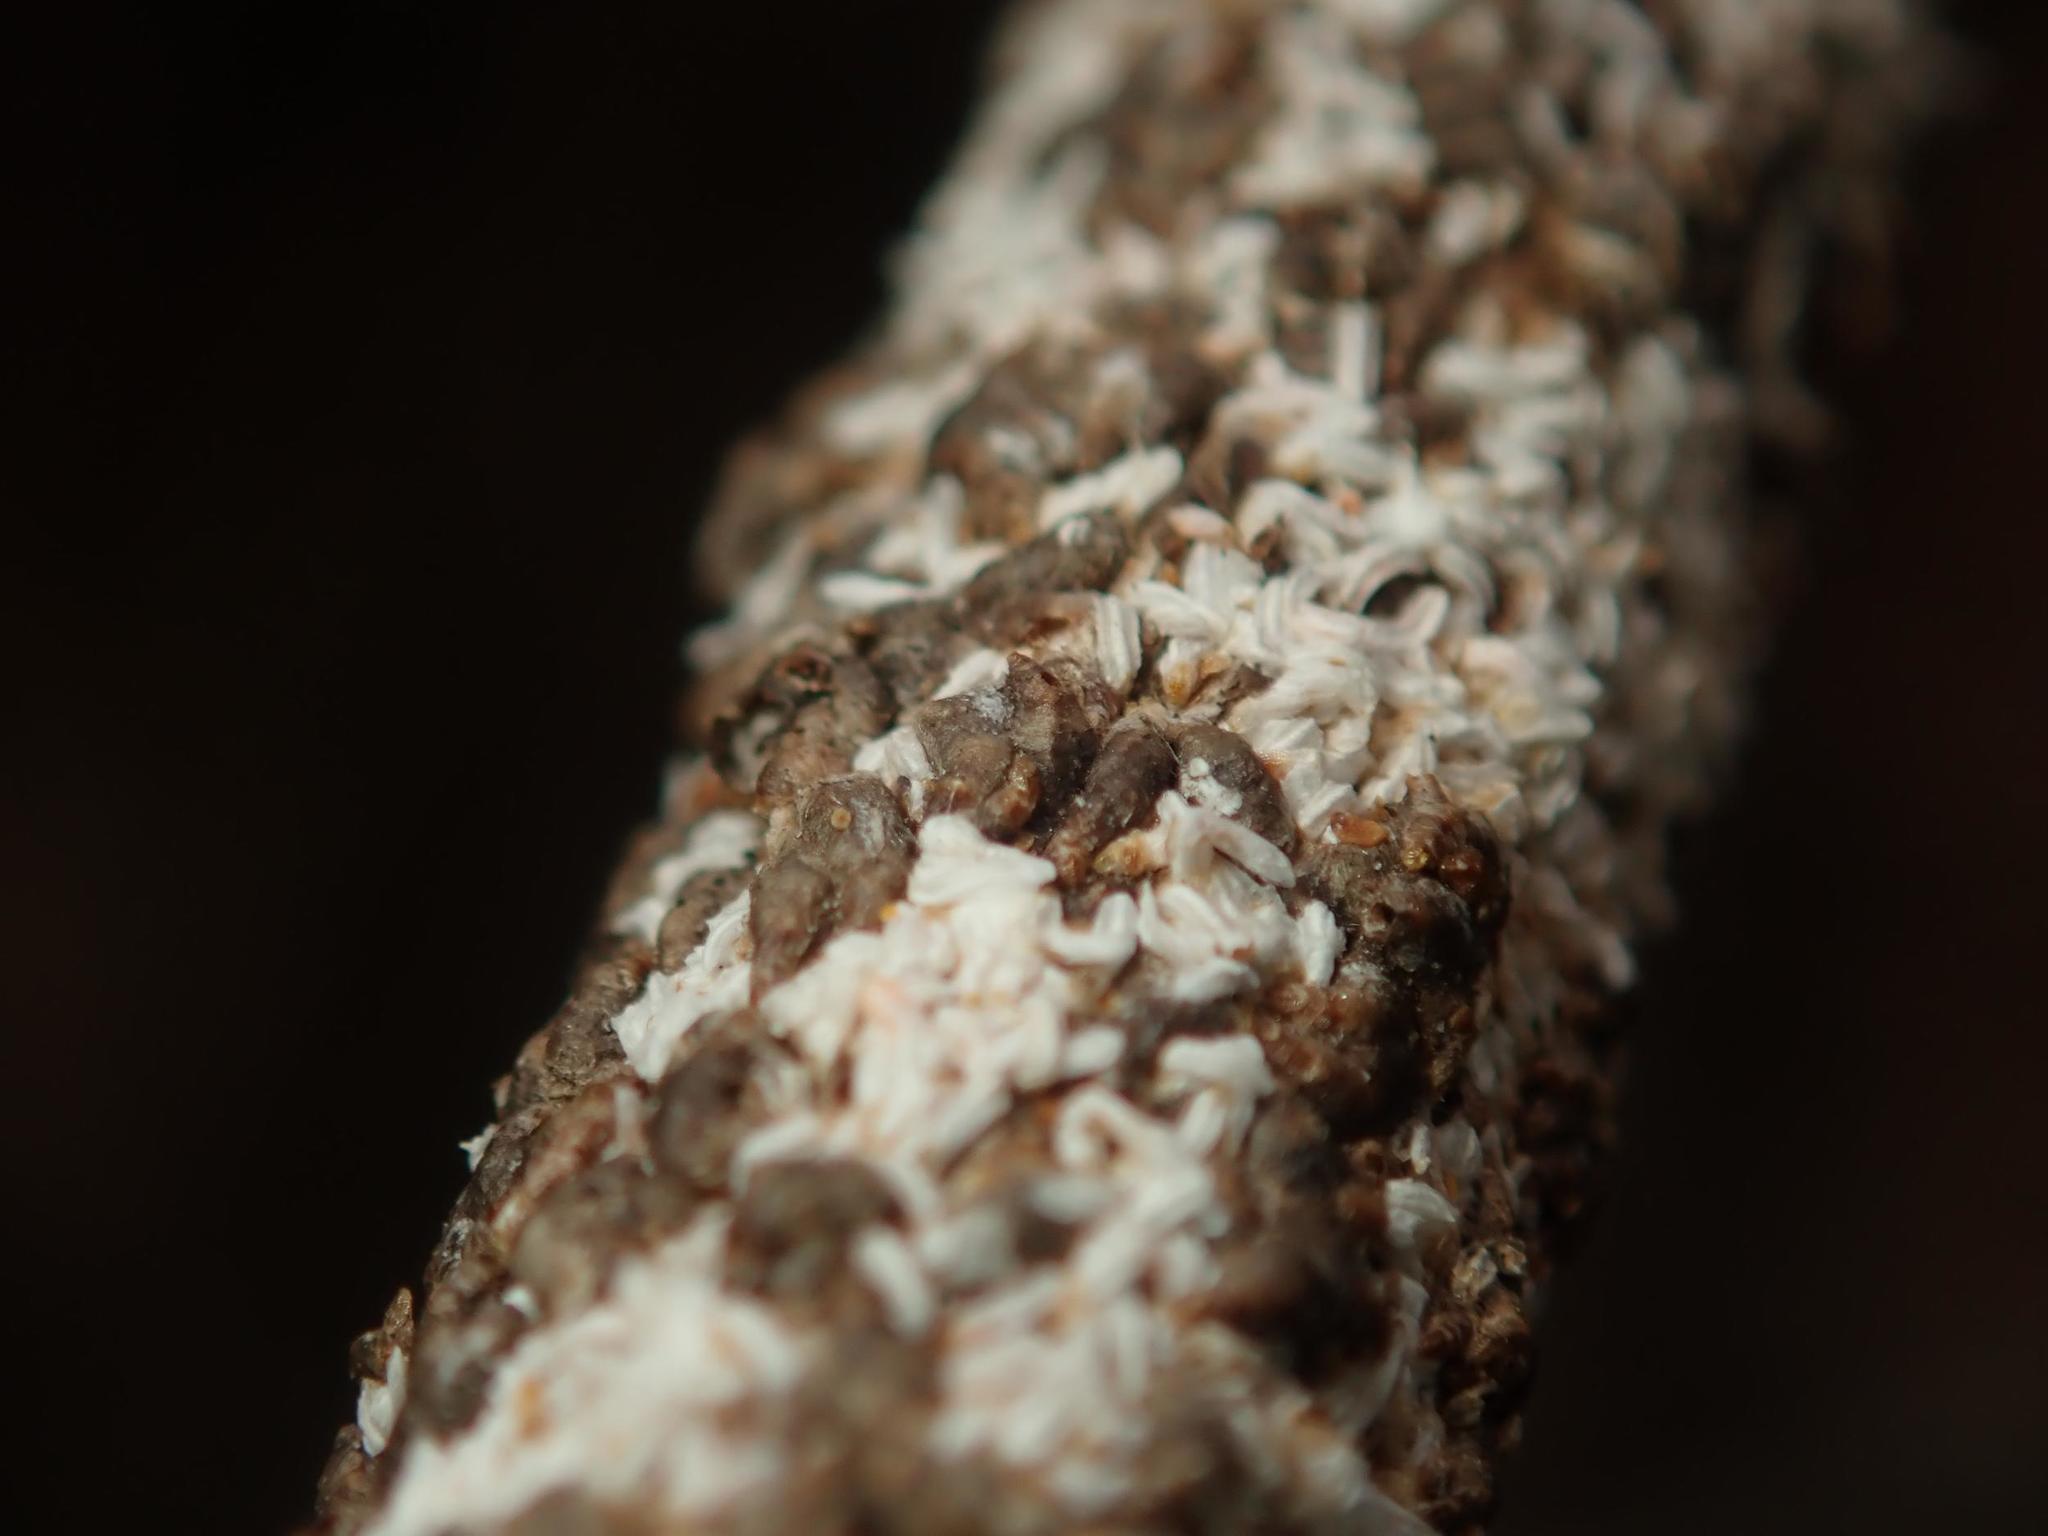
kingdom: Animalia
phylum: Arthropoda
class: Insecta
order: Hemiptera
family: Diaspididae
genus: Unaspis
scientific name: Unaspis euonymi
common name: Euonymus scale
